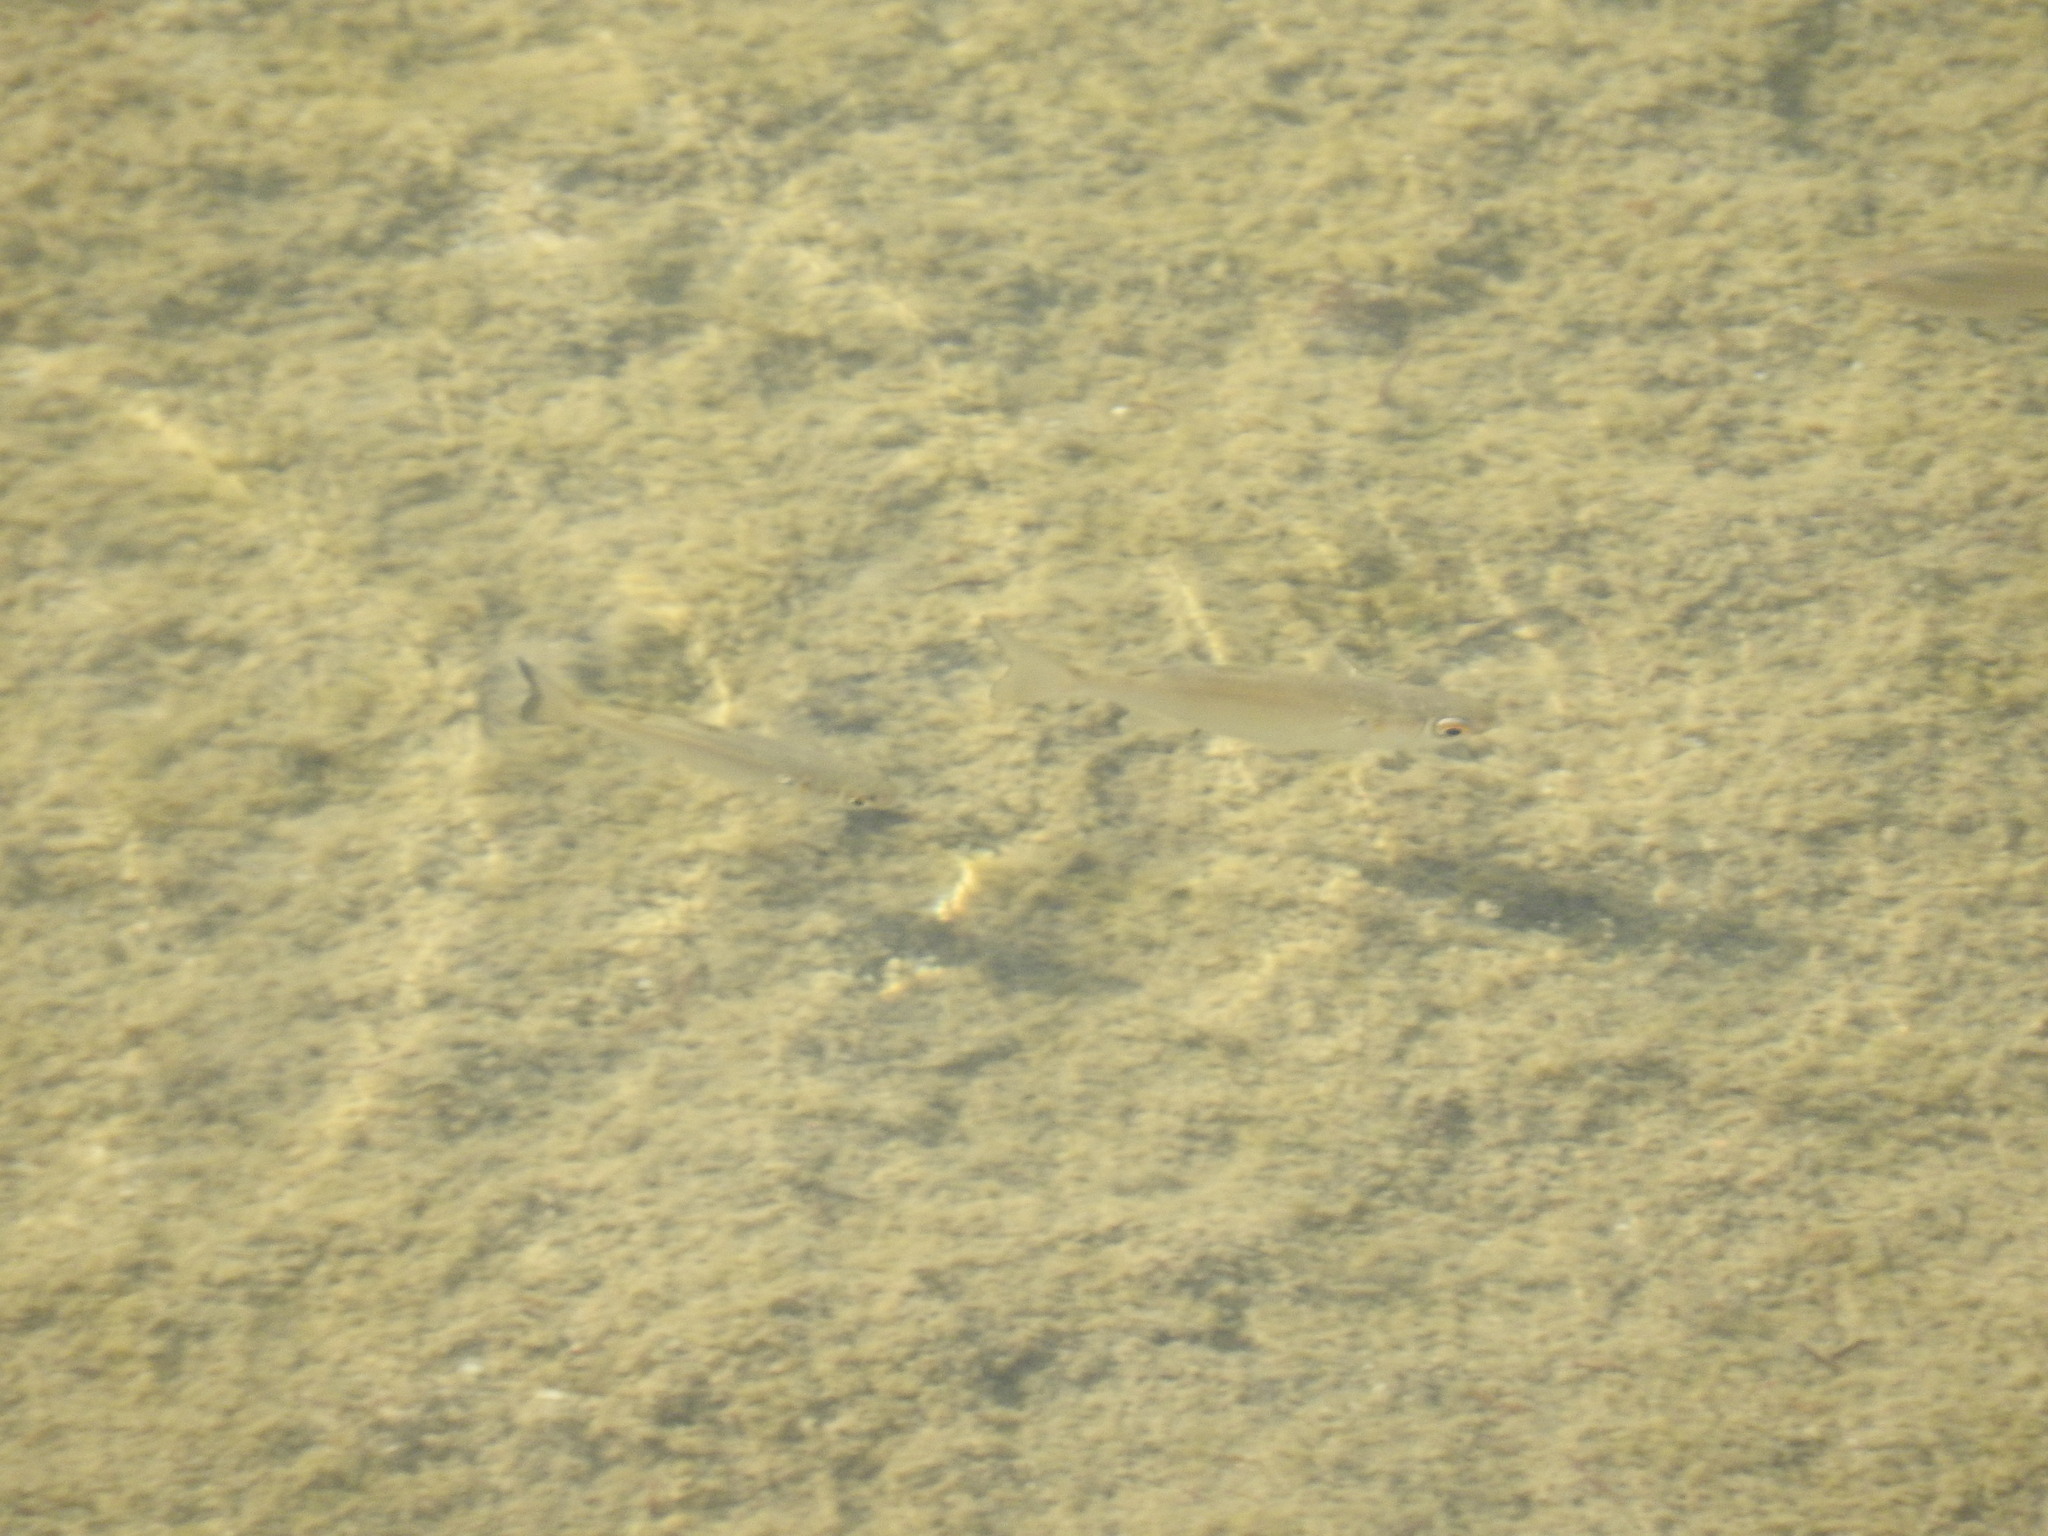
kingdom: Animalia
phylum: Chordata
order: Cyprinodontiformes
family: Poeciliidae
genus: Belonesox
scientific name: Belonesox belizanus
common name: Pike killifish
